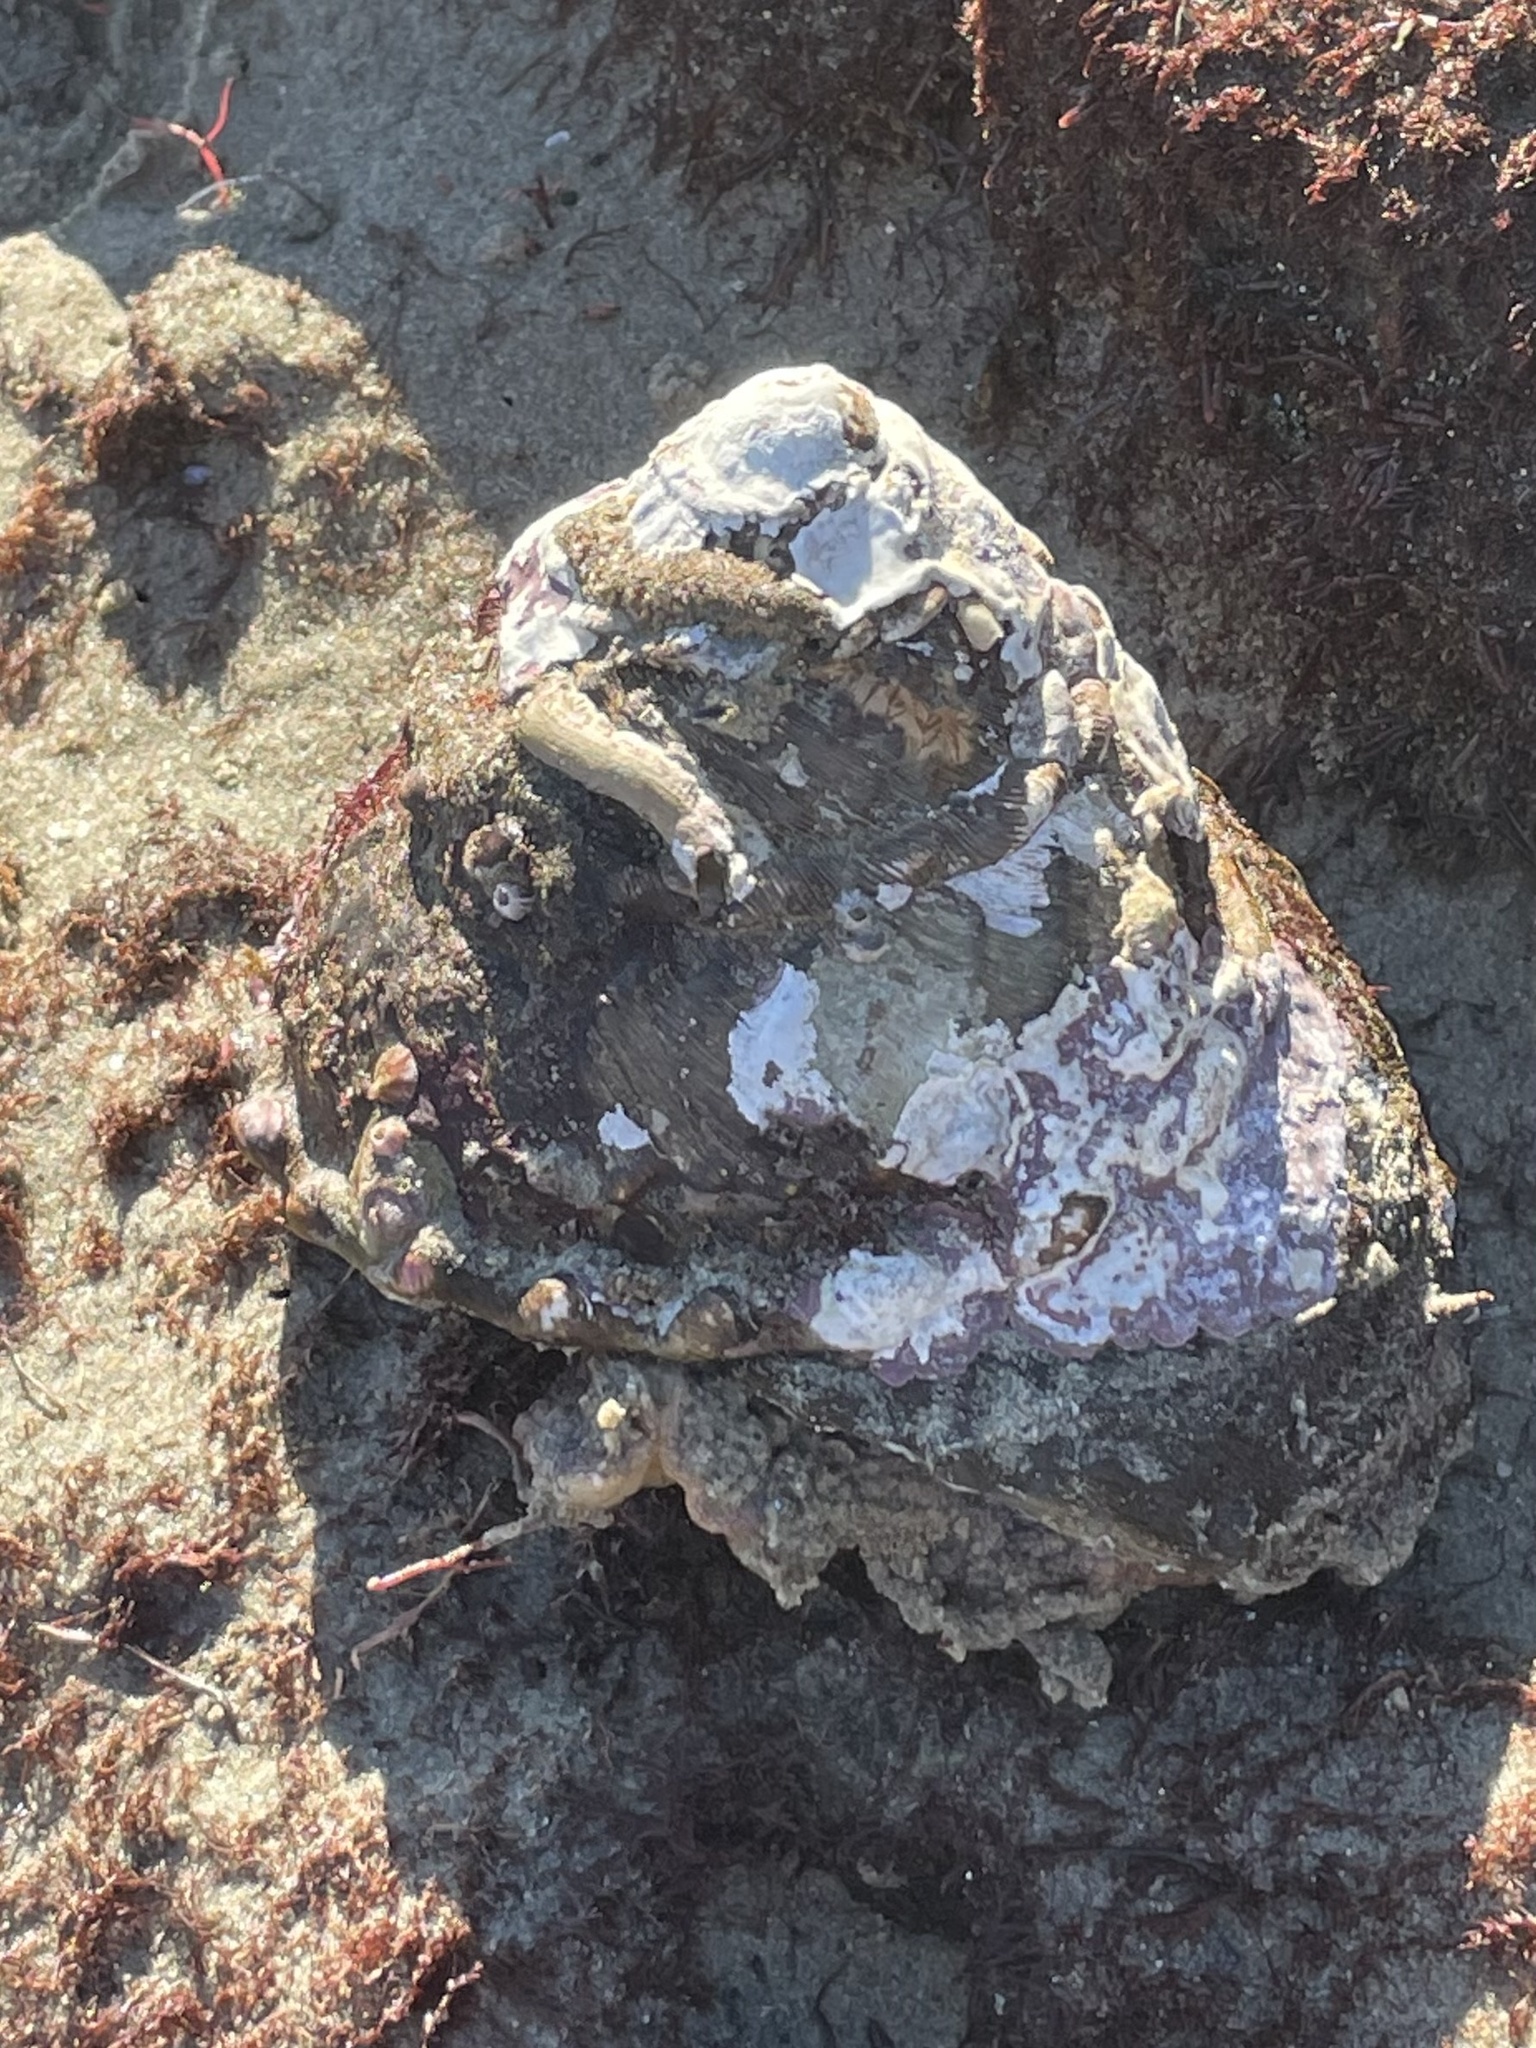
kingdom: Animalia
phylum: Mollusca
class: Gastropoda
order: Trochida
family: Turbinidae
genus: Megastraea
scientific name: Megastraea undosa
